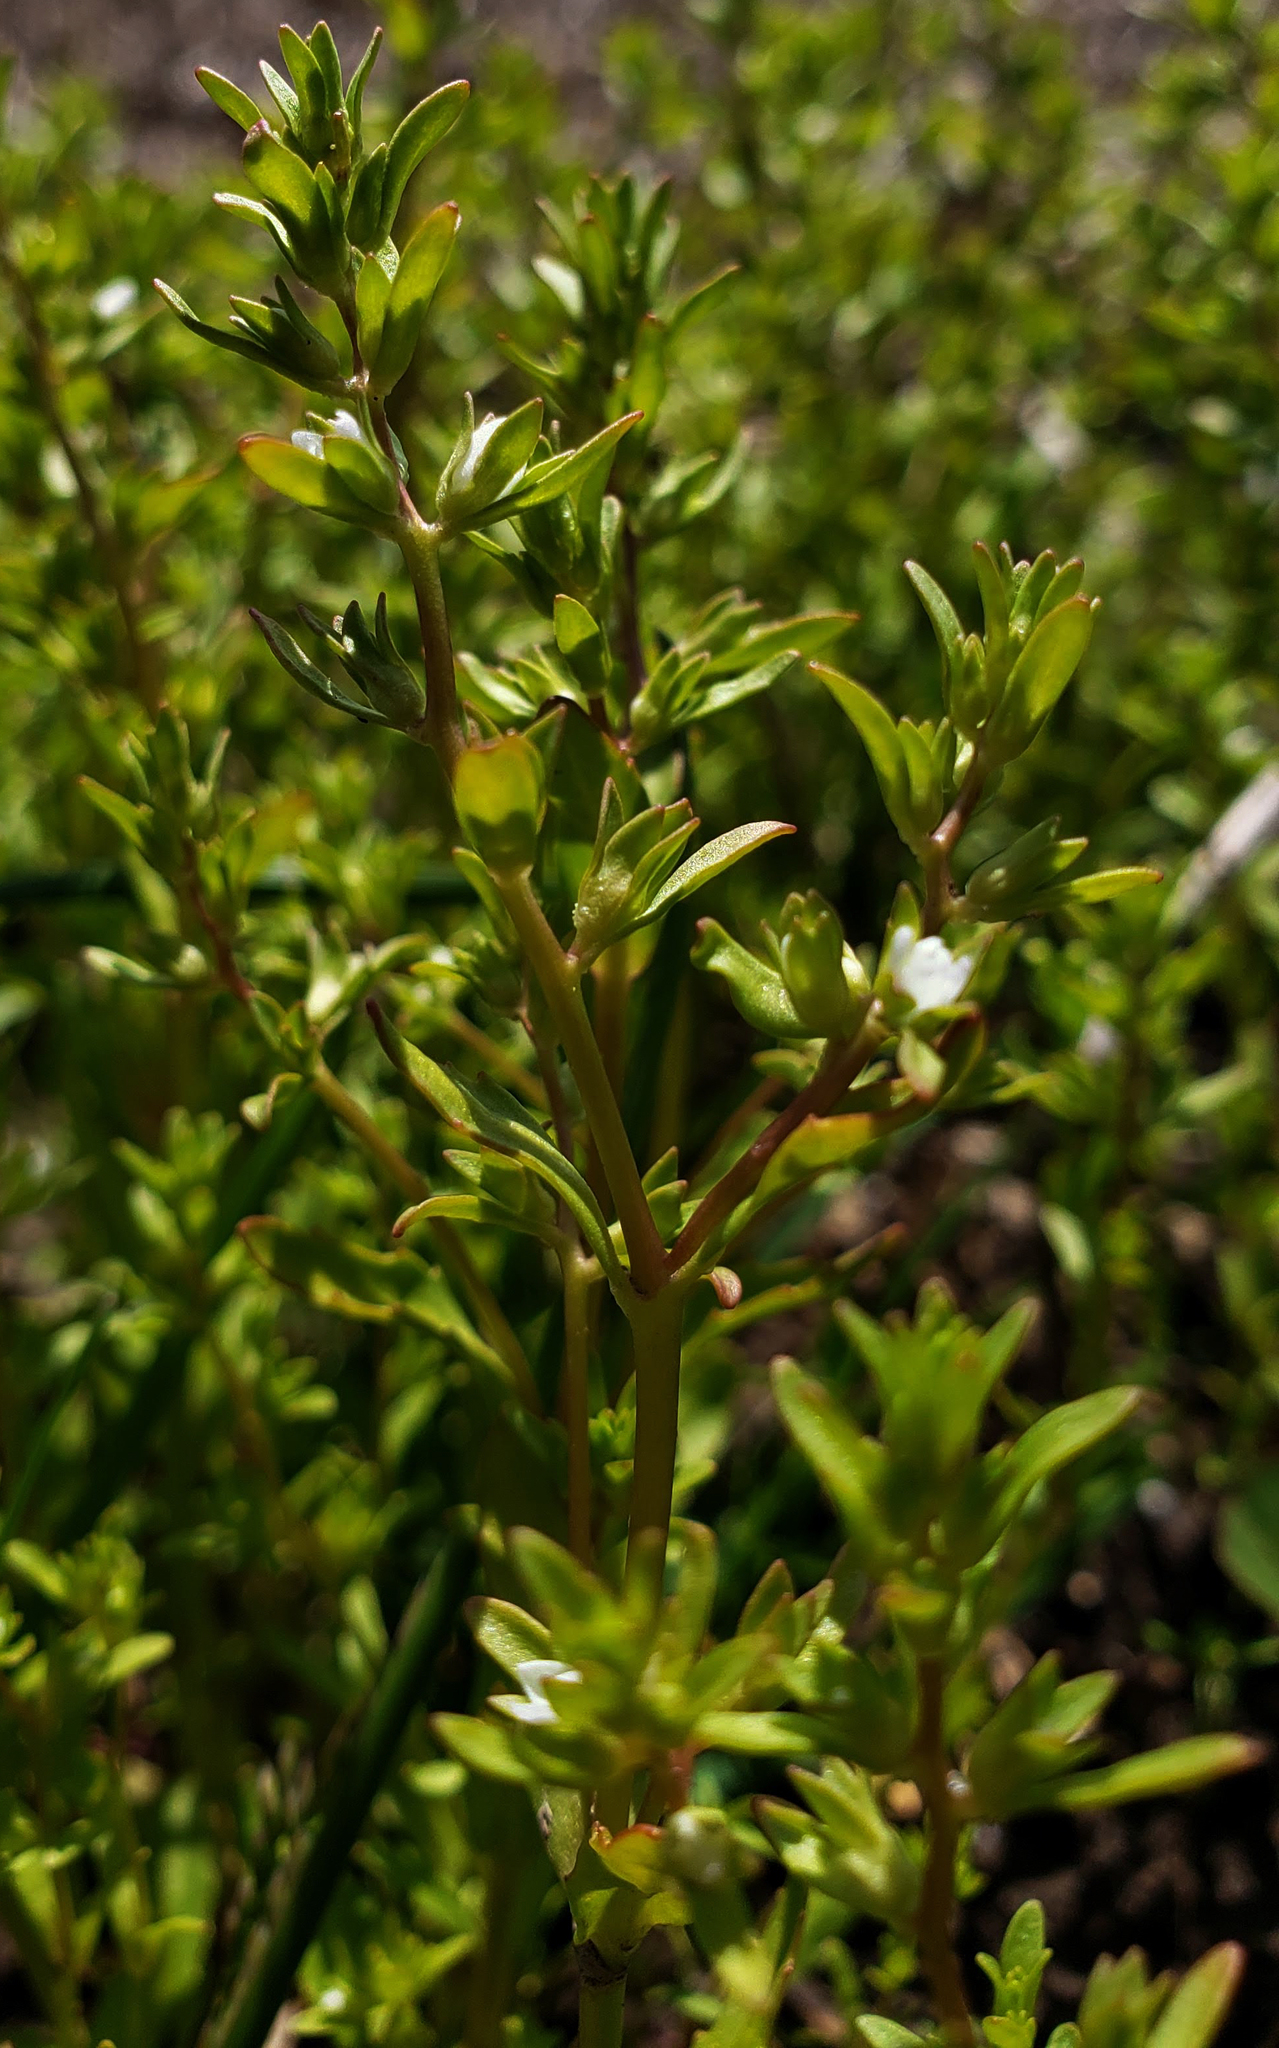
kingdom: Plantae
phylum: Tracheophyta
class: Magnoliopsida
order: Lamiales
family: Plantaginaceae
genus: Veronica
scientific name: Veronica peregrina
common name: Neckweed
